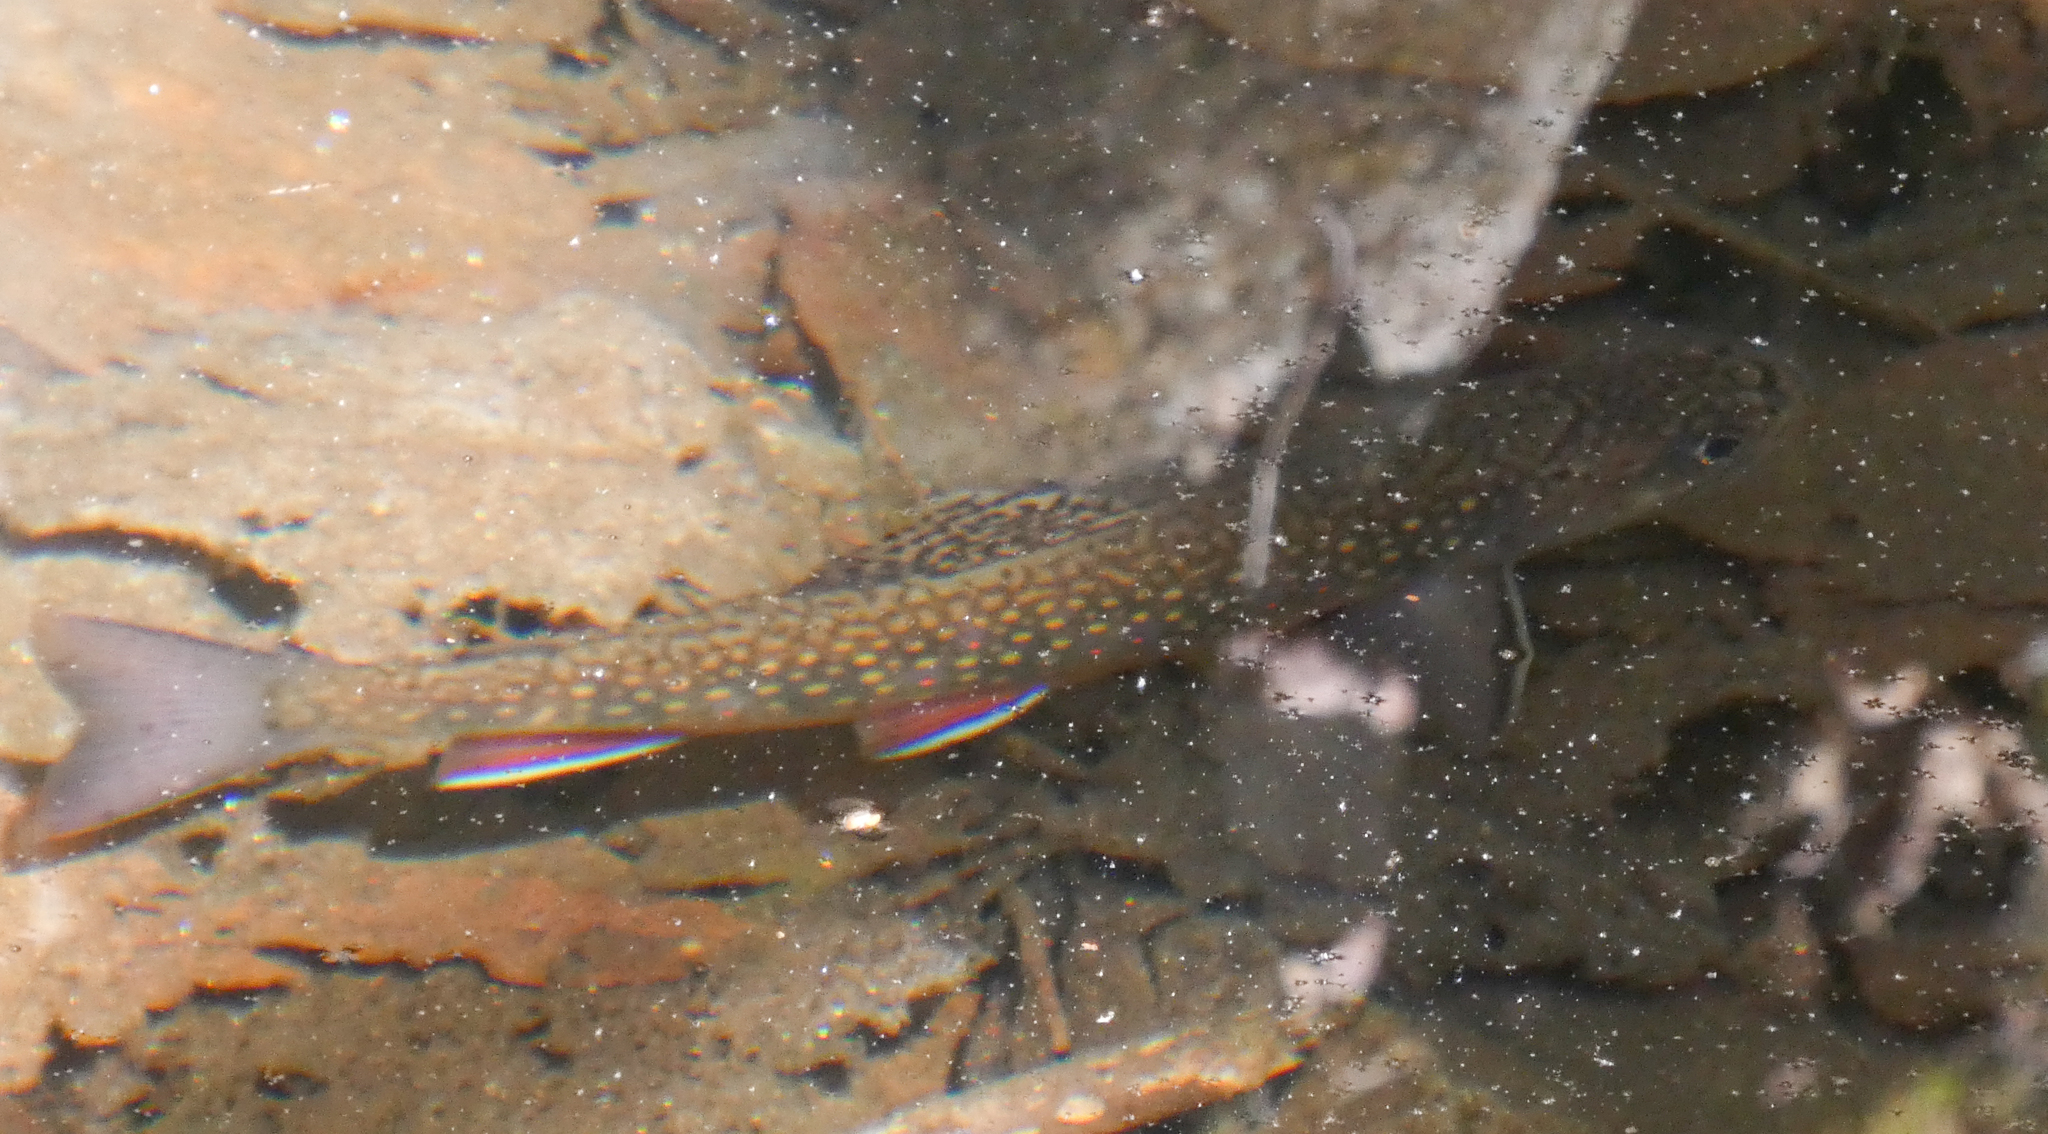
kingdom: Animalia
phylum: Chordata
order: Salmoniformes
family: Salmonidae
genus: Salvelinus
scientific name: Salvelinus fontinalis
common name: Brook trout
